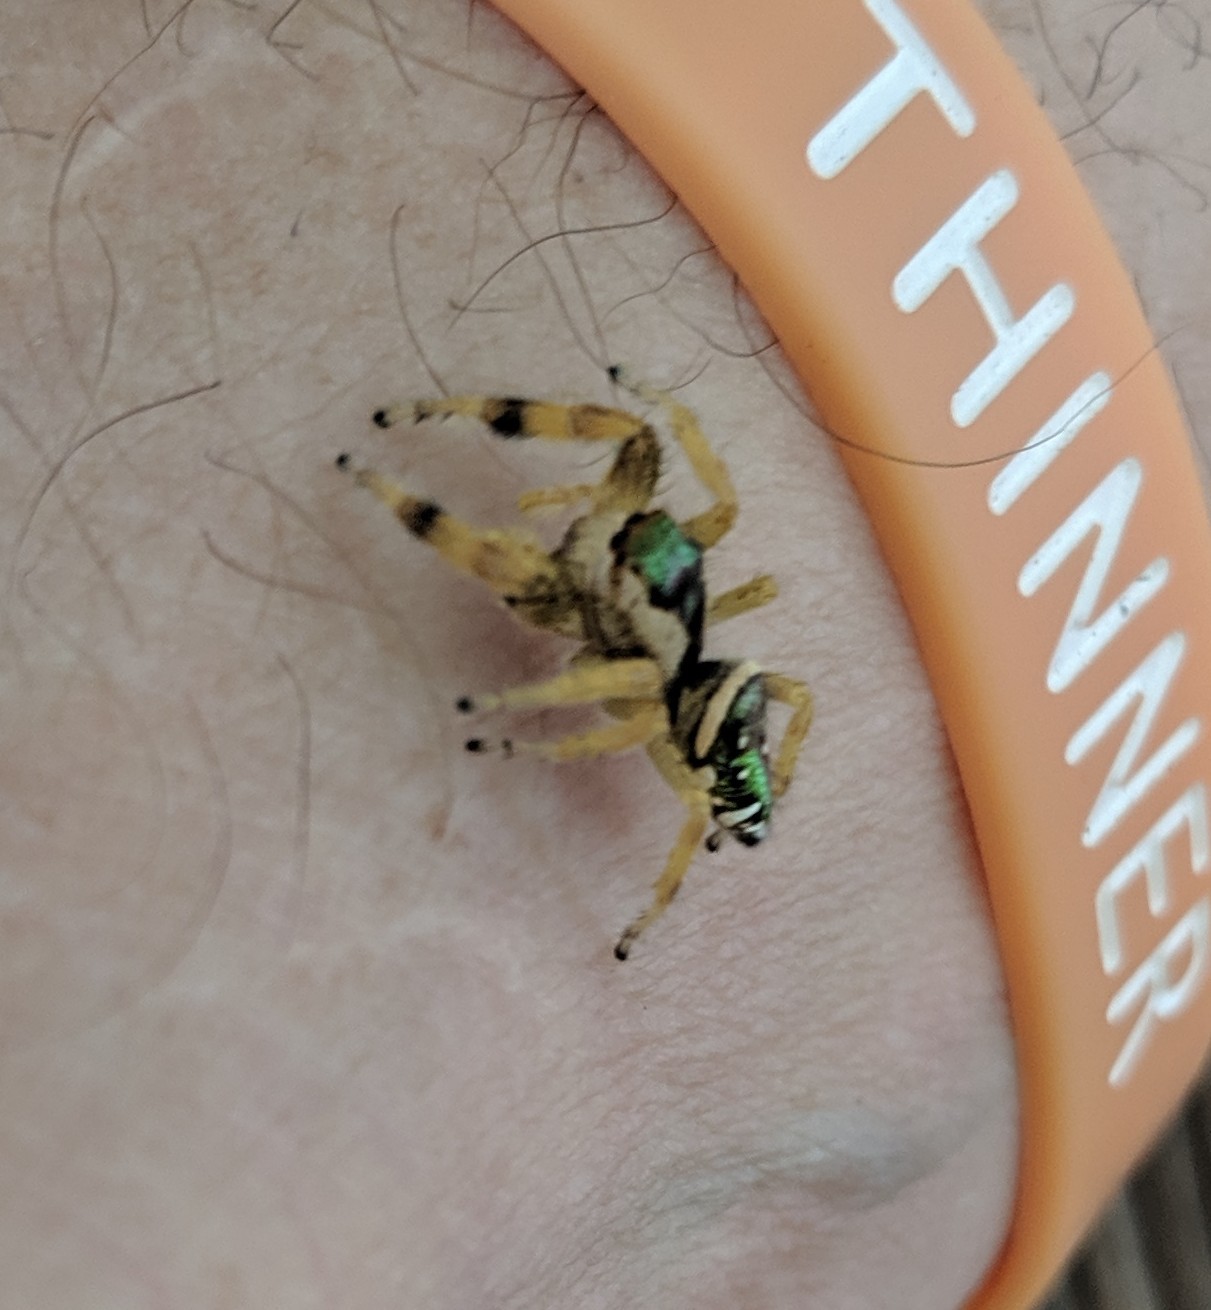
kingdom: Animalia
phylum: Arthropoda
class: Arachnida
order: Araneae
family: Salticidae
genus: Paraphidippus
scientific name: Paraphidippus aurantius
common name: Jumping spiders
